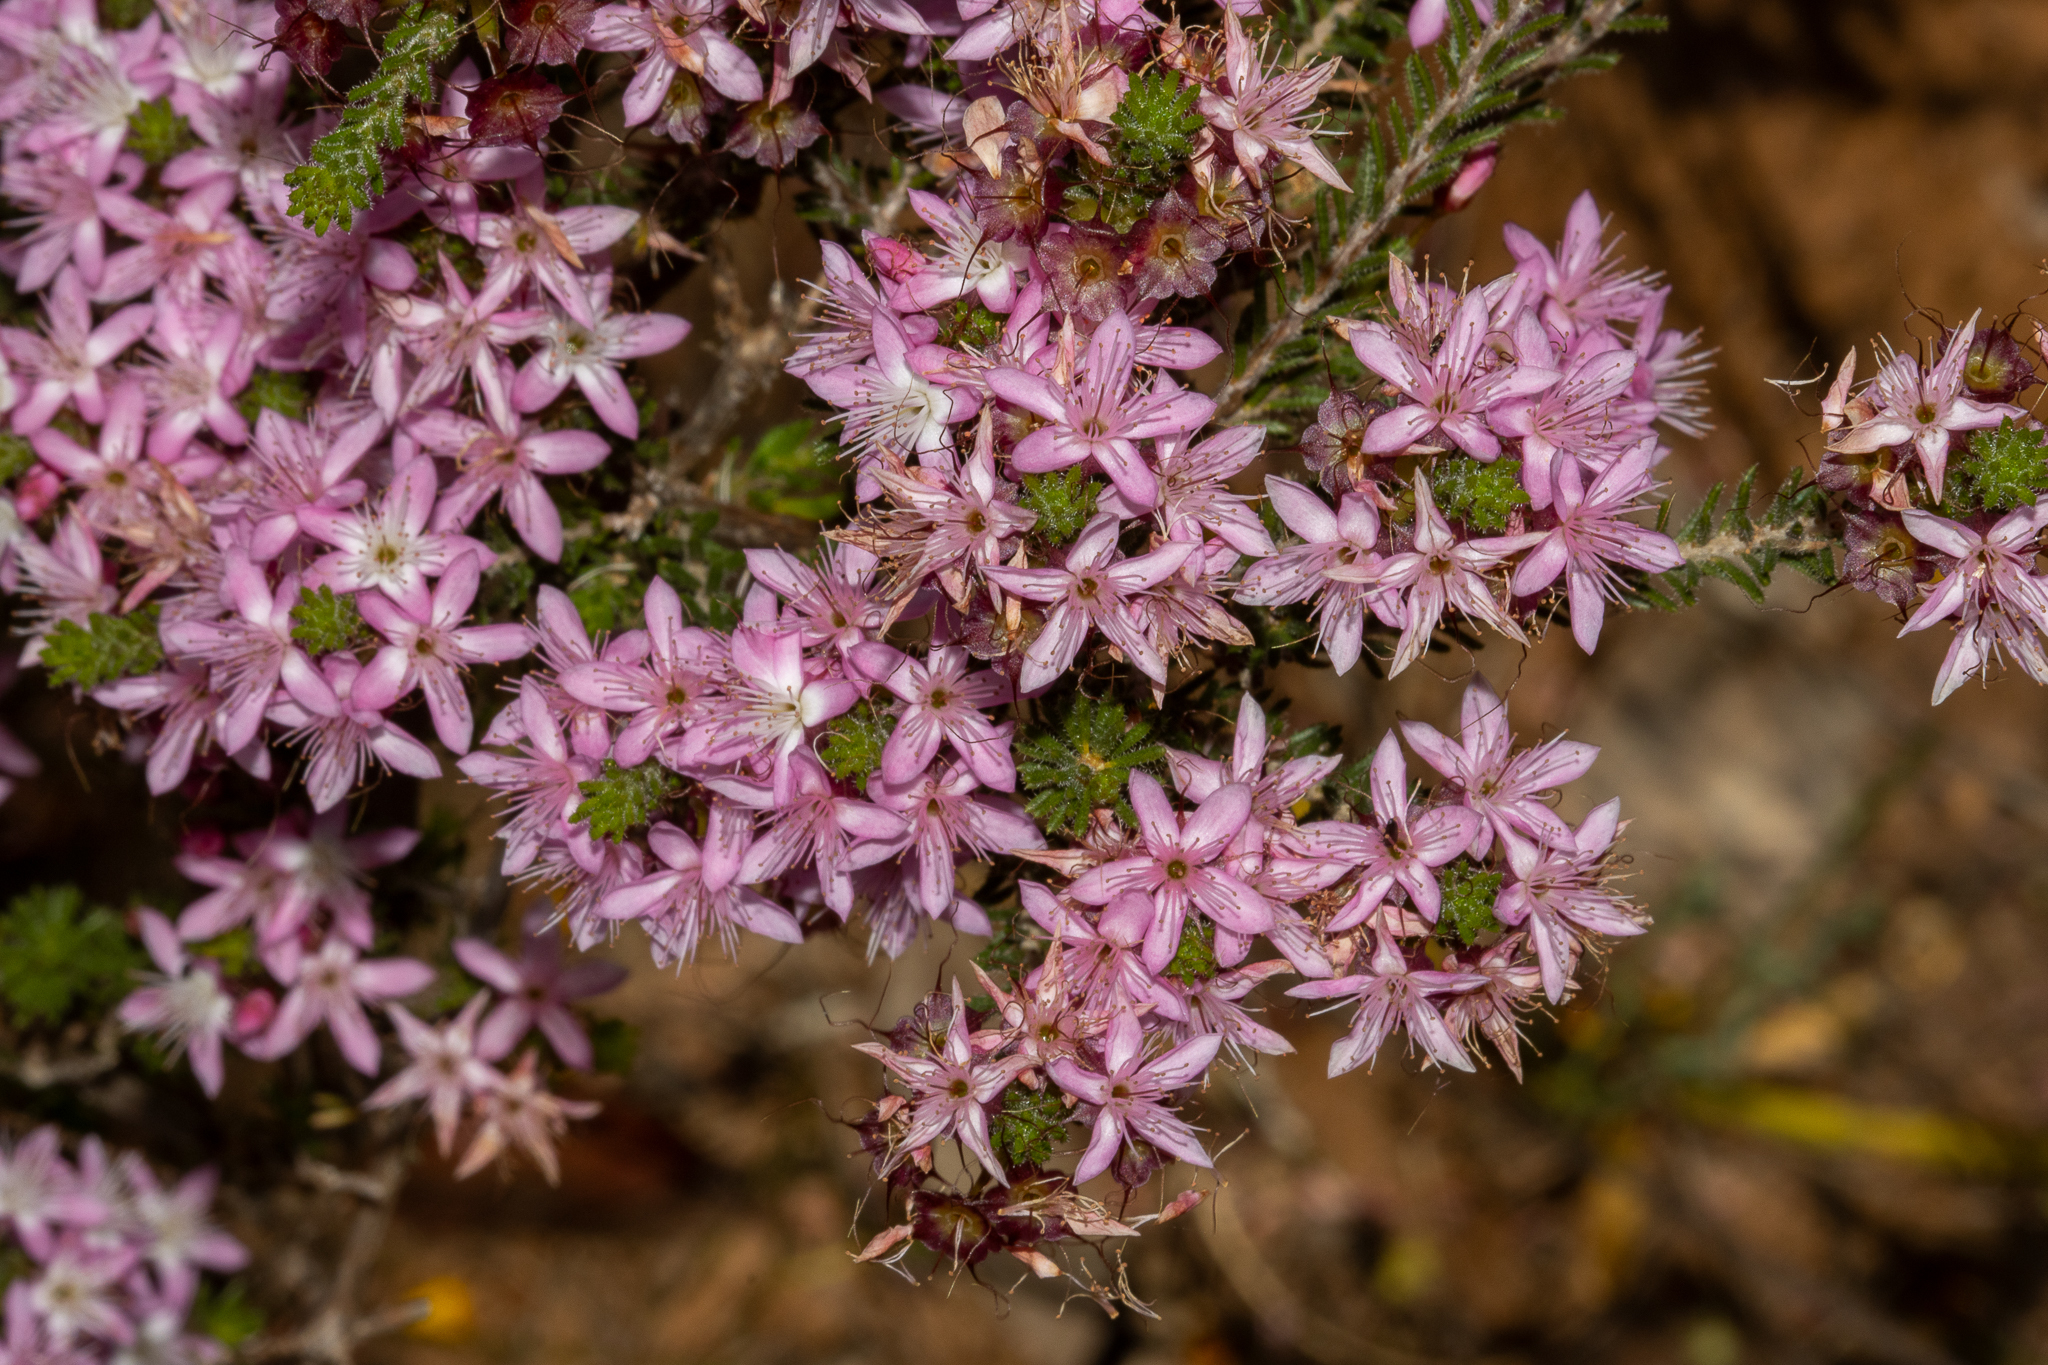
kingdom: Plantae
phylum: Tracheophyta
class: Magnoliopsida
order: Myrtales
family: Myrtaceae
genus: Calytrix
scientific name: Calytrix tetragona
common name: Common fringe myrtle
